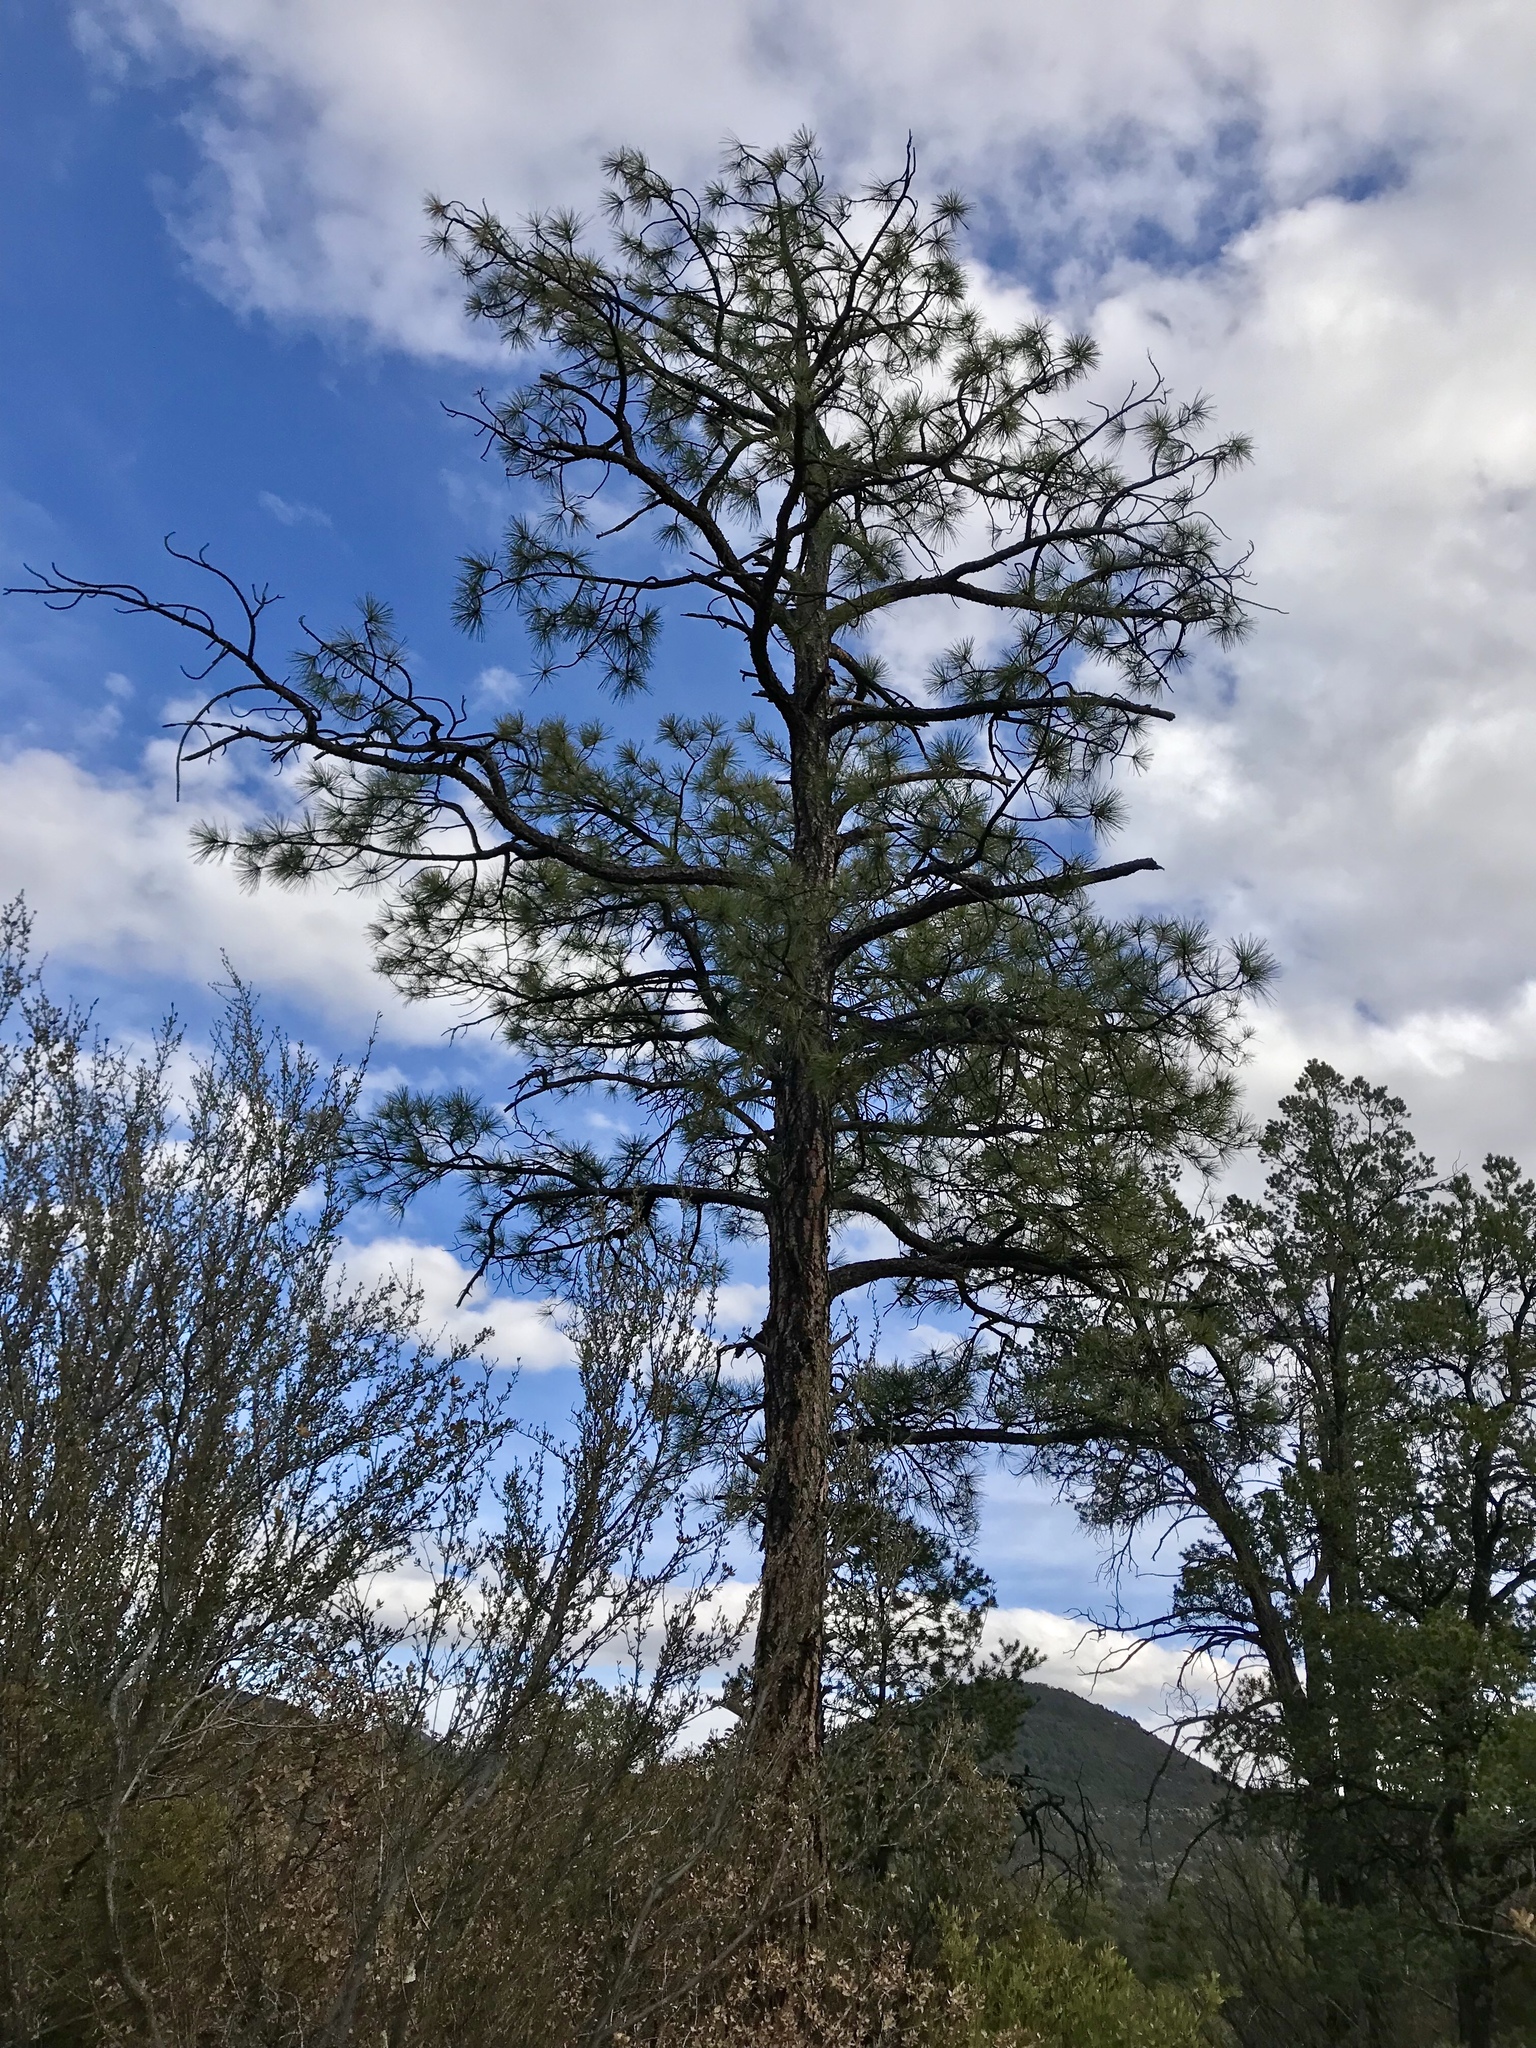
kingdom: Plantae
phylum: Tracheophyta
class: Pinopsida
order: Pinales
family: Pinaceae
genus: Pinus
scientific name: Pinus ponderosa
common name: Western yellow-pine
